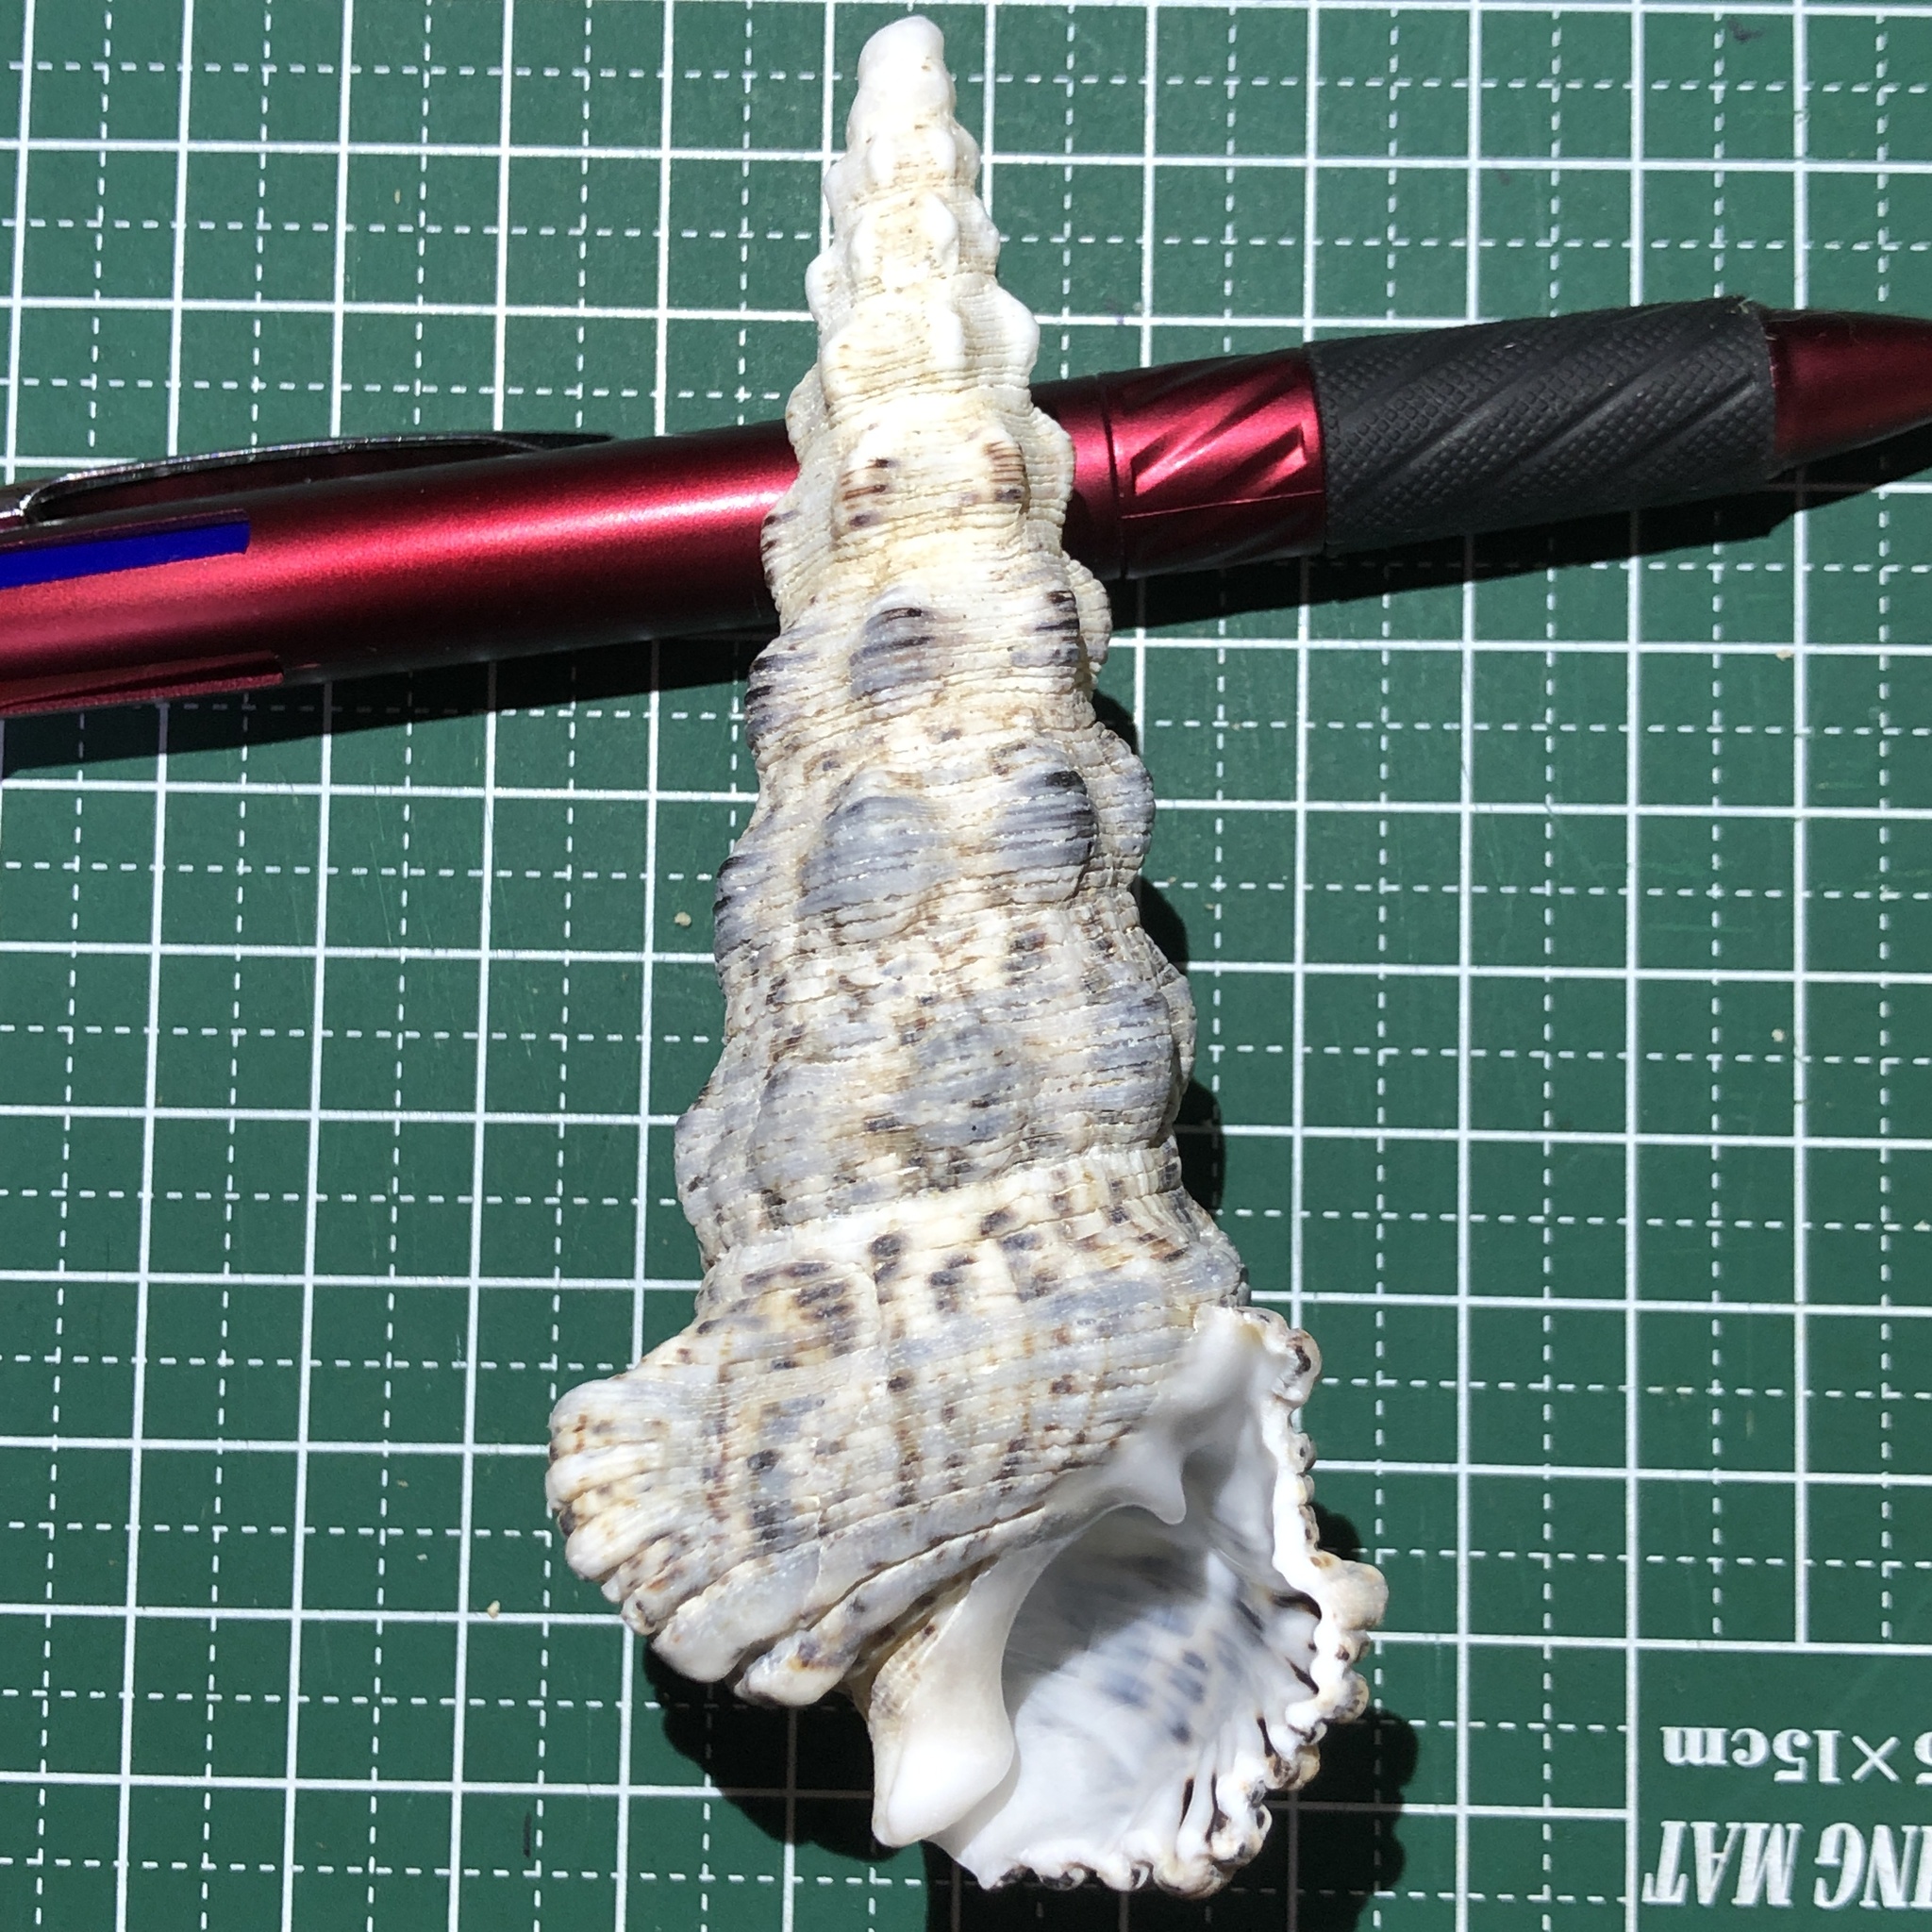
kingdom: Animalia
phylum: Mollusca
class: Gastropoda
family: Cerithiidae
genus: Cerithium
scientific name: Cerithium nodulosum
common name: Nadelschnecke giant knobbed cerith
